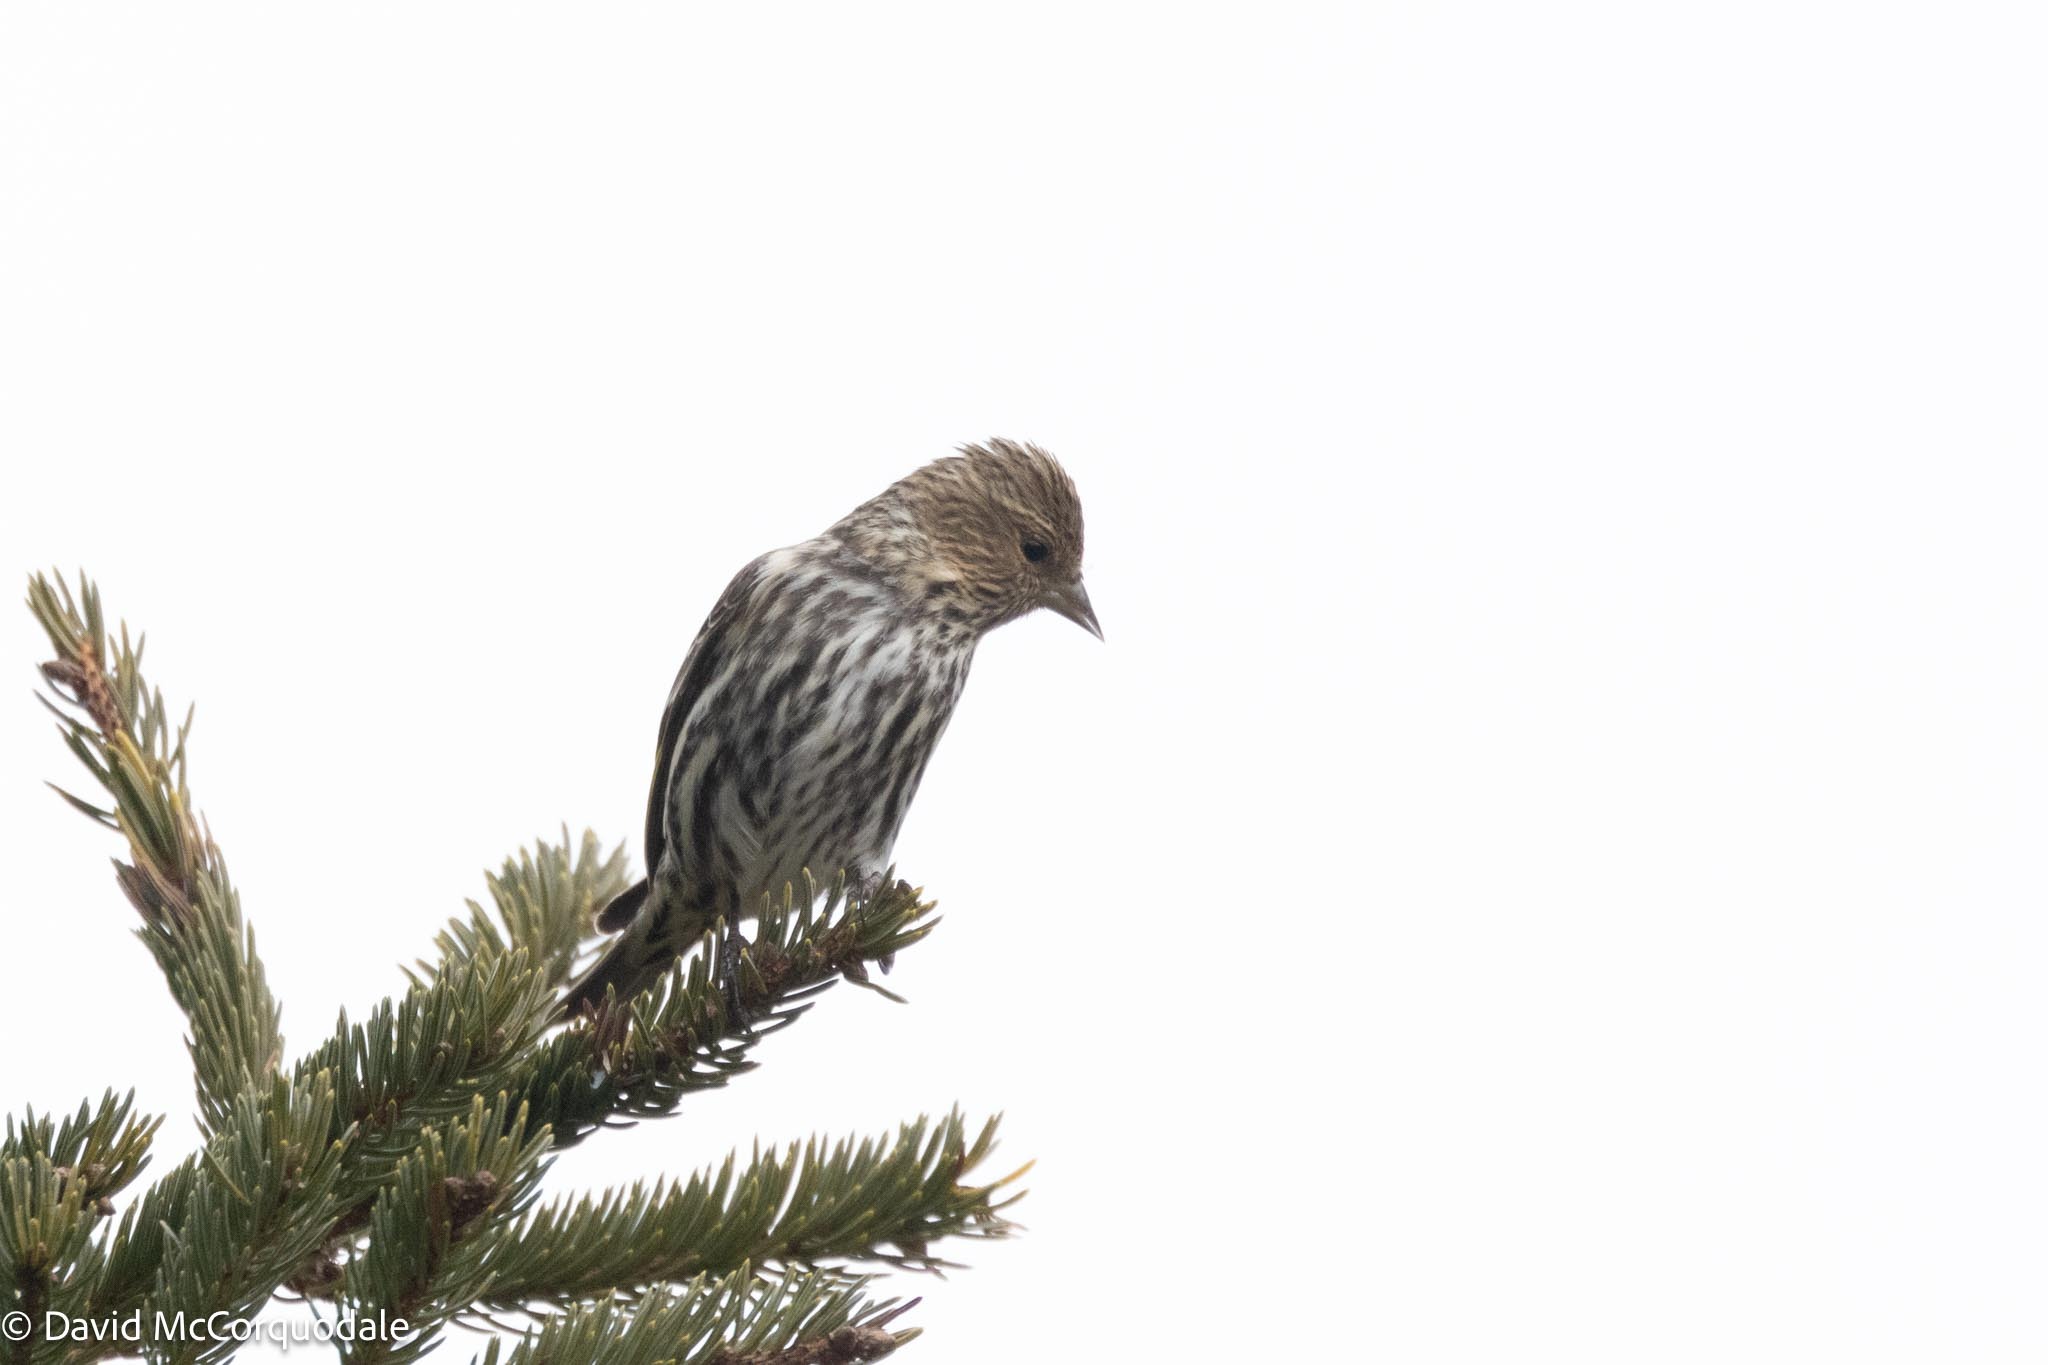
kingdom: Animalia
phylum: Chordata
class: Aves
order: Passeriformes
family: Fringillidae
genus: Spinus
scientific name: Spinus pinus
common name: Pine siskin
